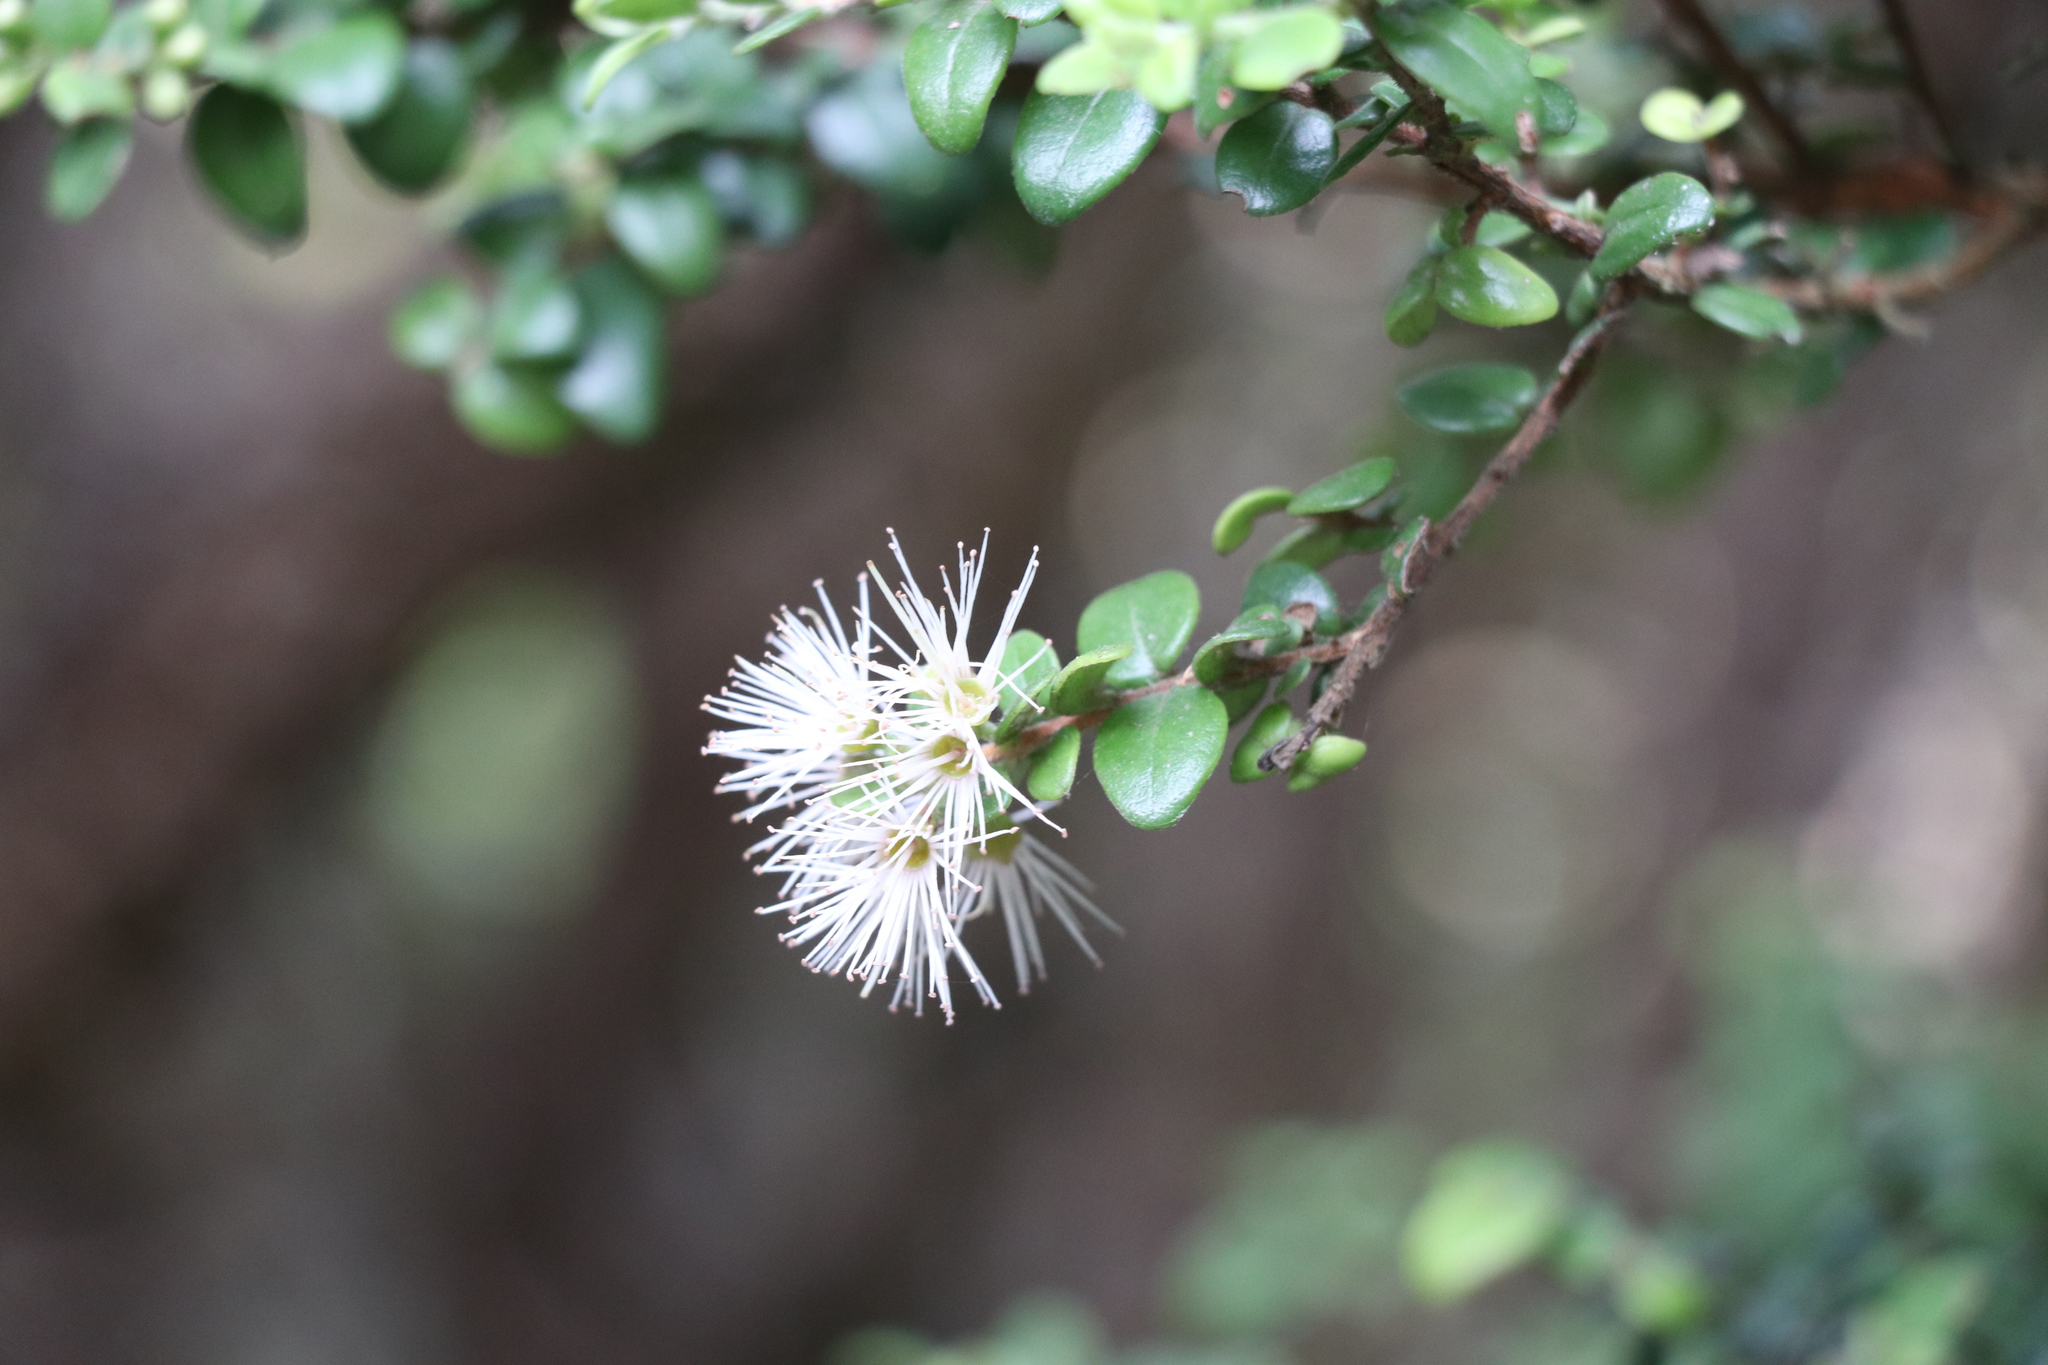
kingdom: Plantae
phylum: Tracheophyta
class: Magnoliopsida
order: Myrtales
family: Myrtaceae
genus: Metrosideros
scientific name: Metrosideros perforata
